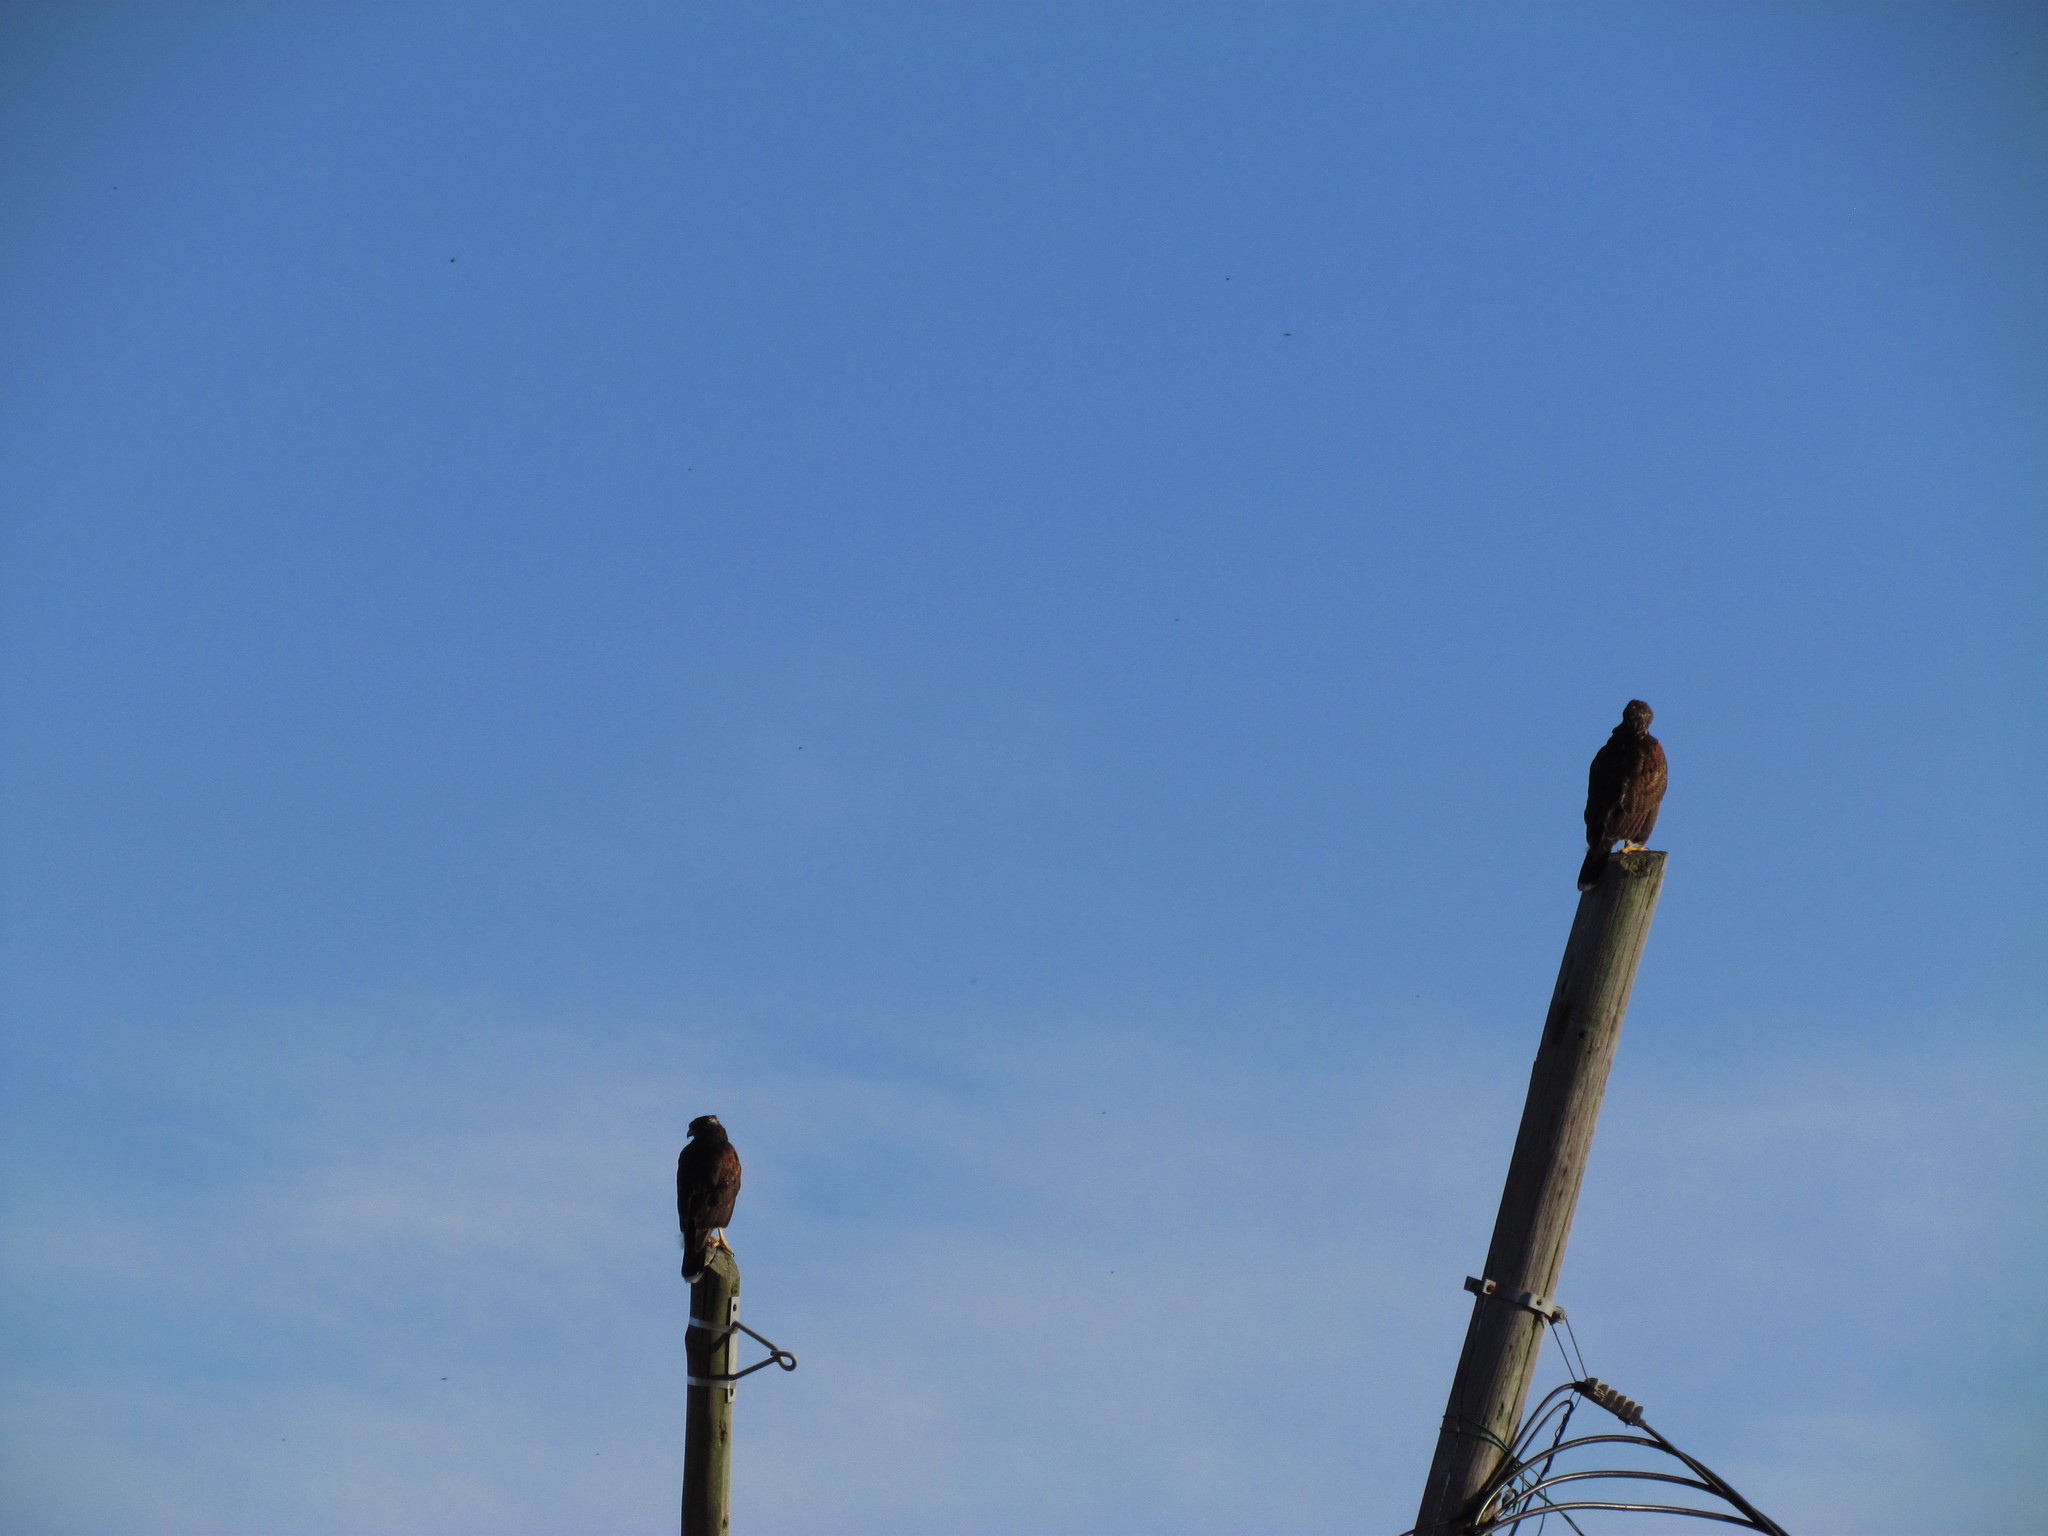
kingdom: Animalia
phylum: Chordata
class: Aves
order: Accipitriformes
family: Accipitridae
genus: Parabuteo
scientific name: Parabuteo unicinctus
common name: Harris's hawk
